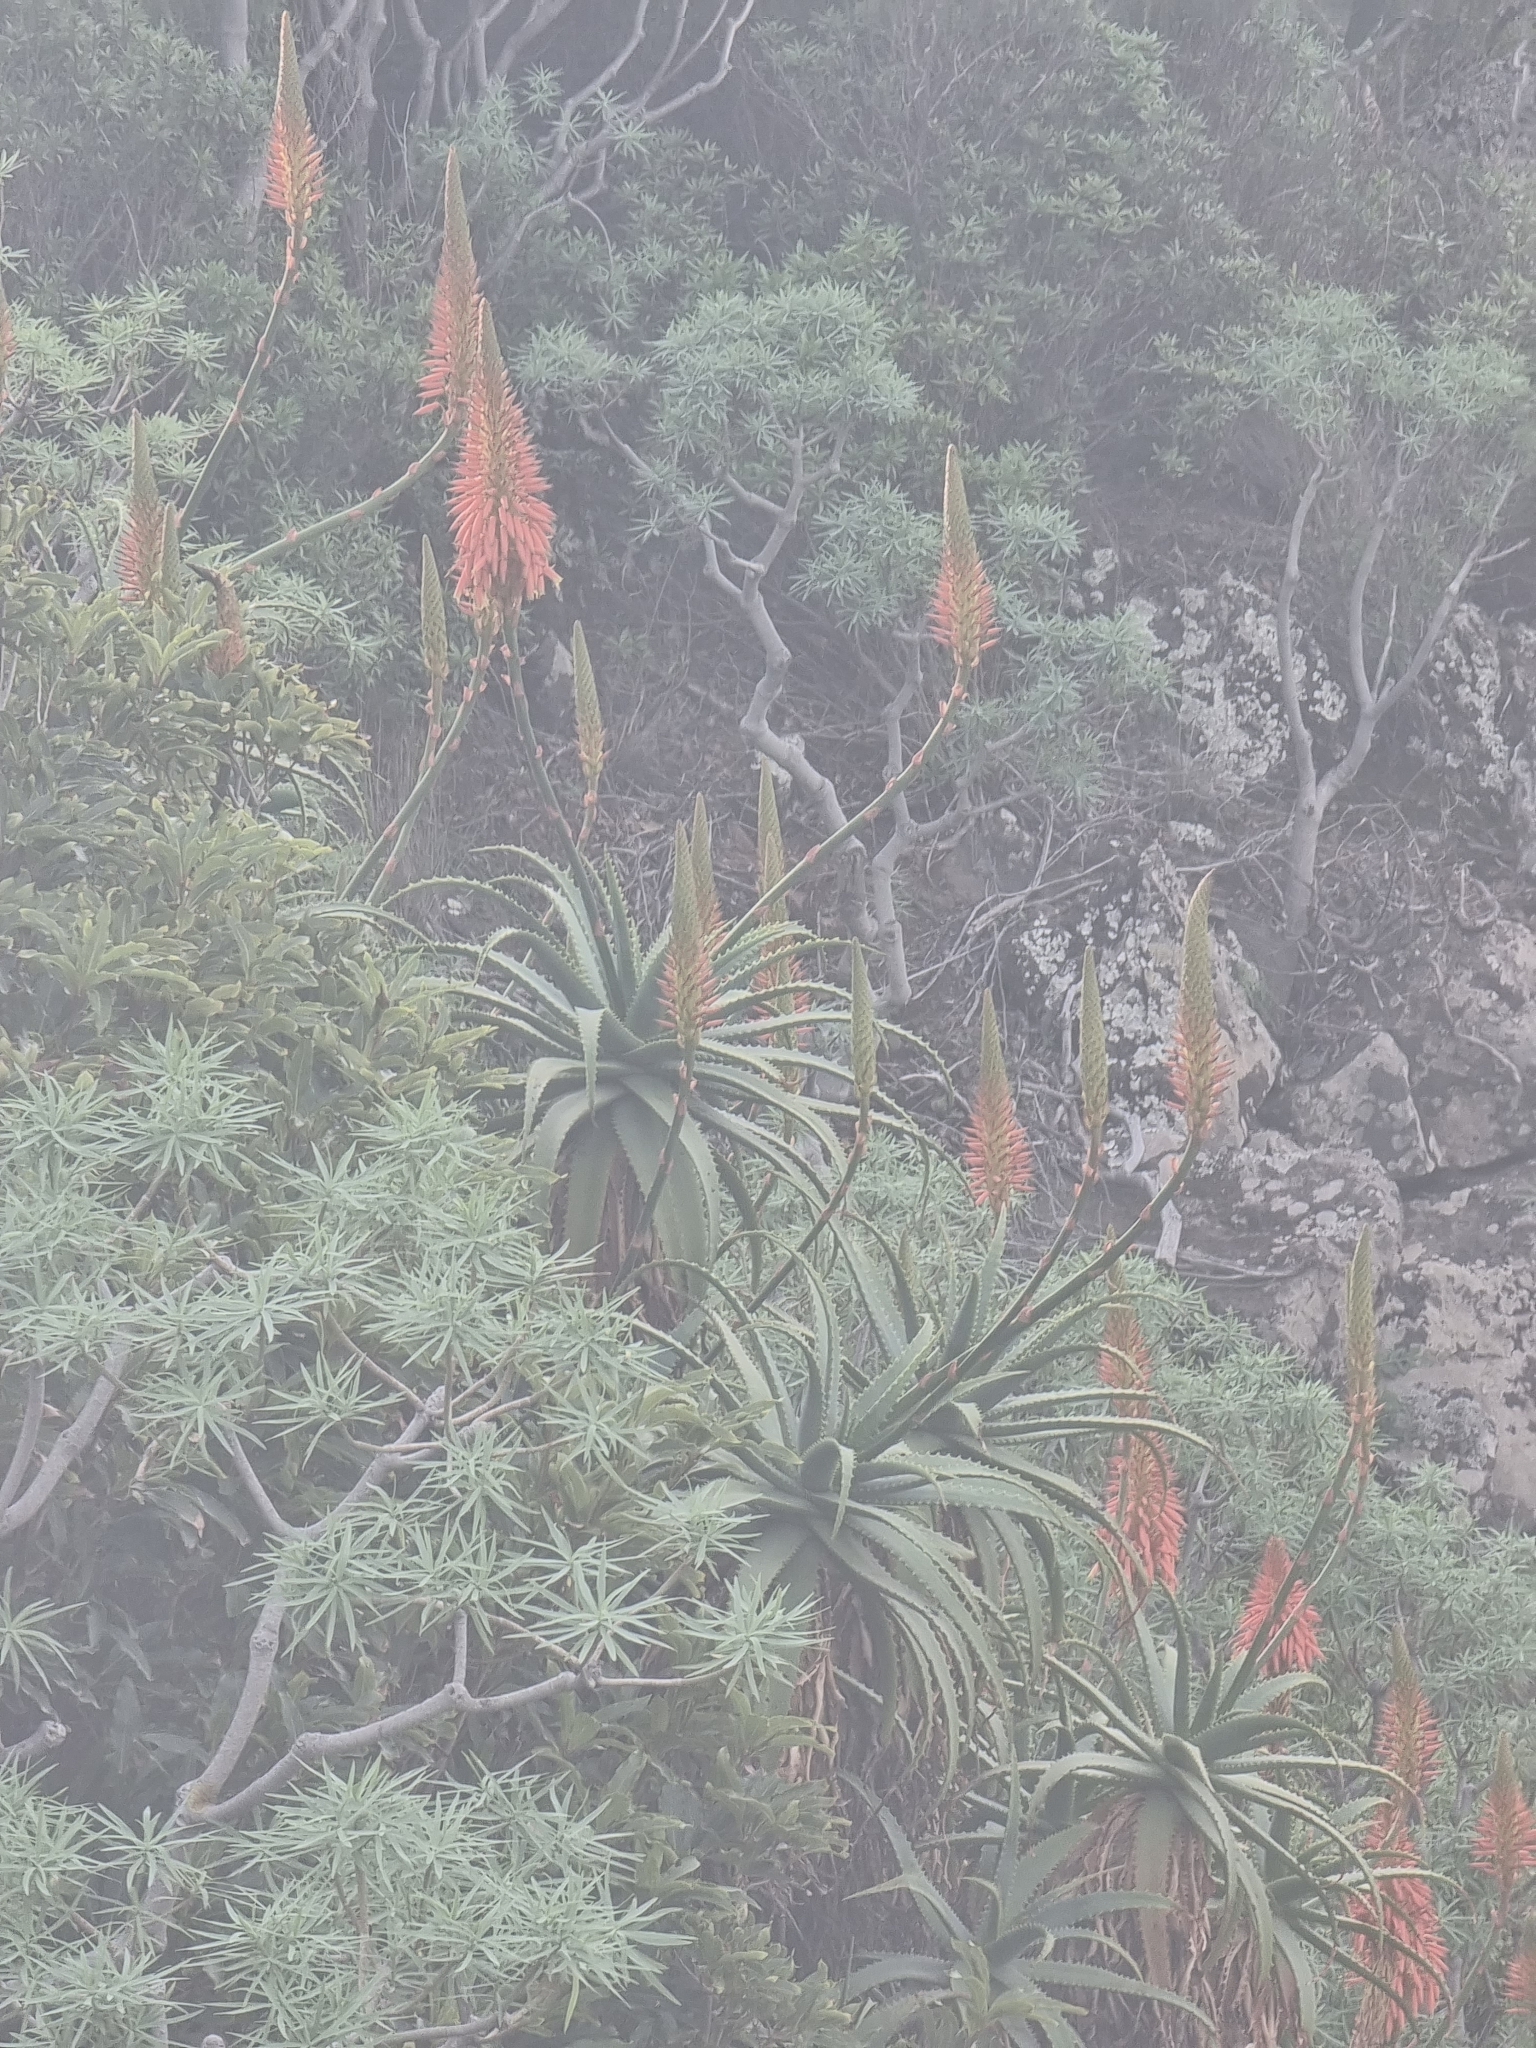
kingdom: Plantae
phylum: Tracheophyta
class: Liliopsida
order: Asparagales
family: Asphodelaceae
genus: Aloe
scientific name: Aloe arborescens
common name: Candelabra aloe
